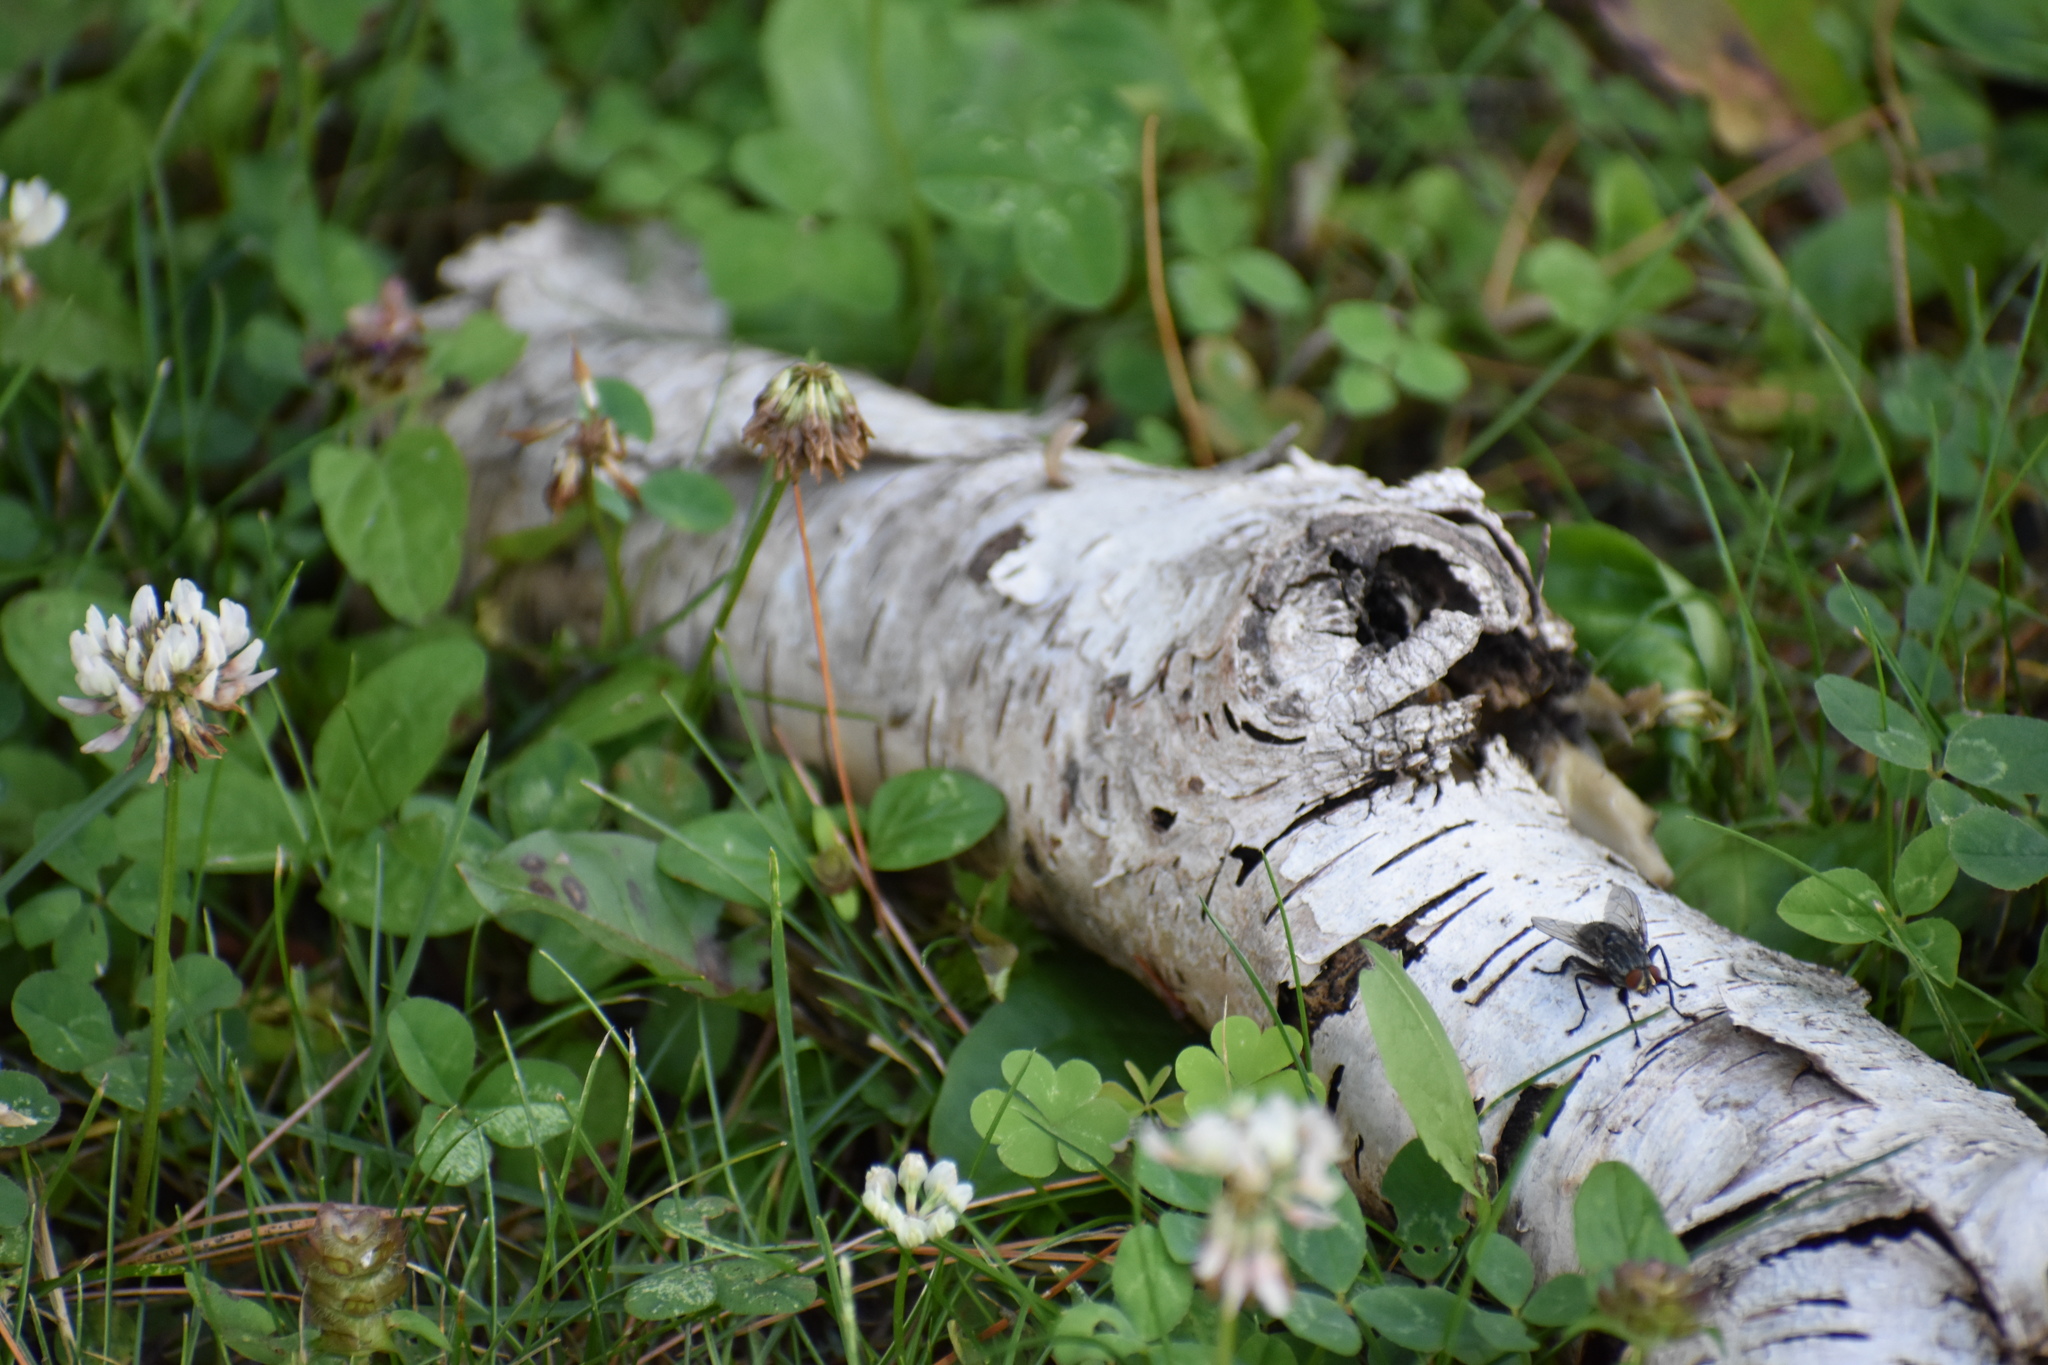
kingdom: Plantae
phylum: Tracheophyta
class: Magnoliopsida
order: Fabales
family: Fabaceae
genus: Trifolium
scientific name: Trifolium repens
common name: White clover
